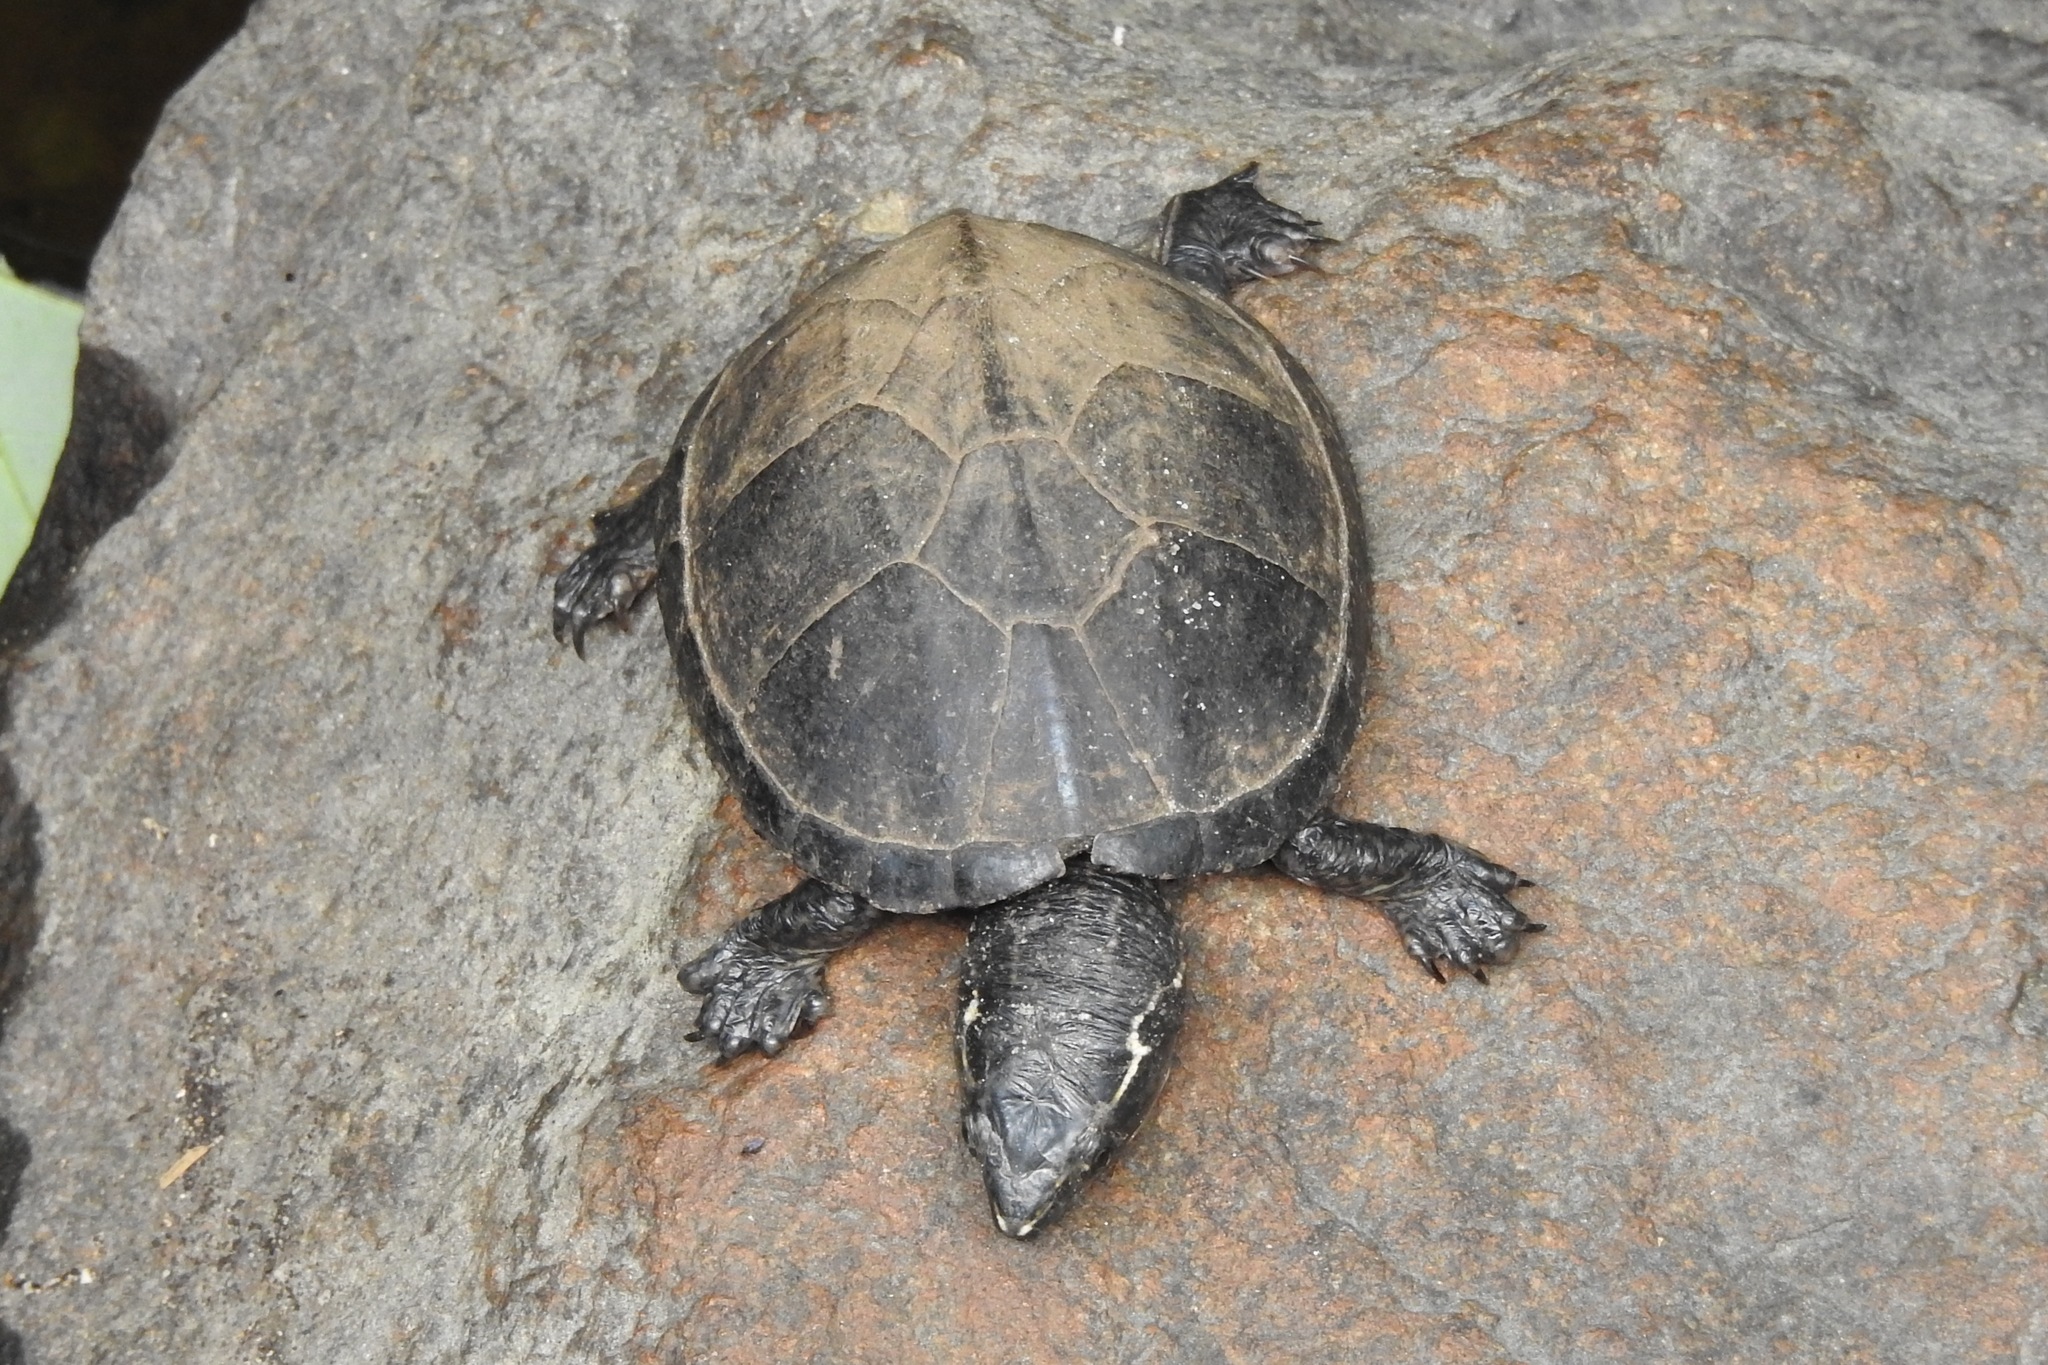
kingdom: Animalia
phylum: Chordata
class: Testudines
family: Kinosternidae
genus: Sternotherus
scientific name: Sternotherus odoratus
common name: Common musk turtle
